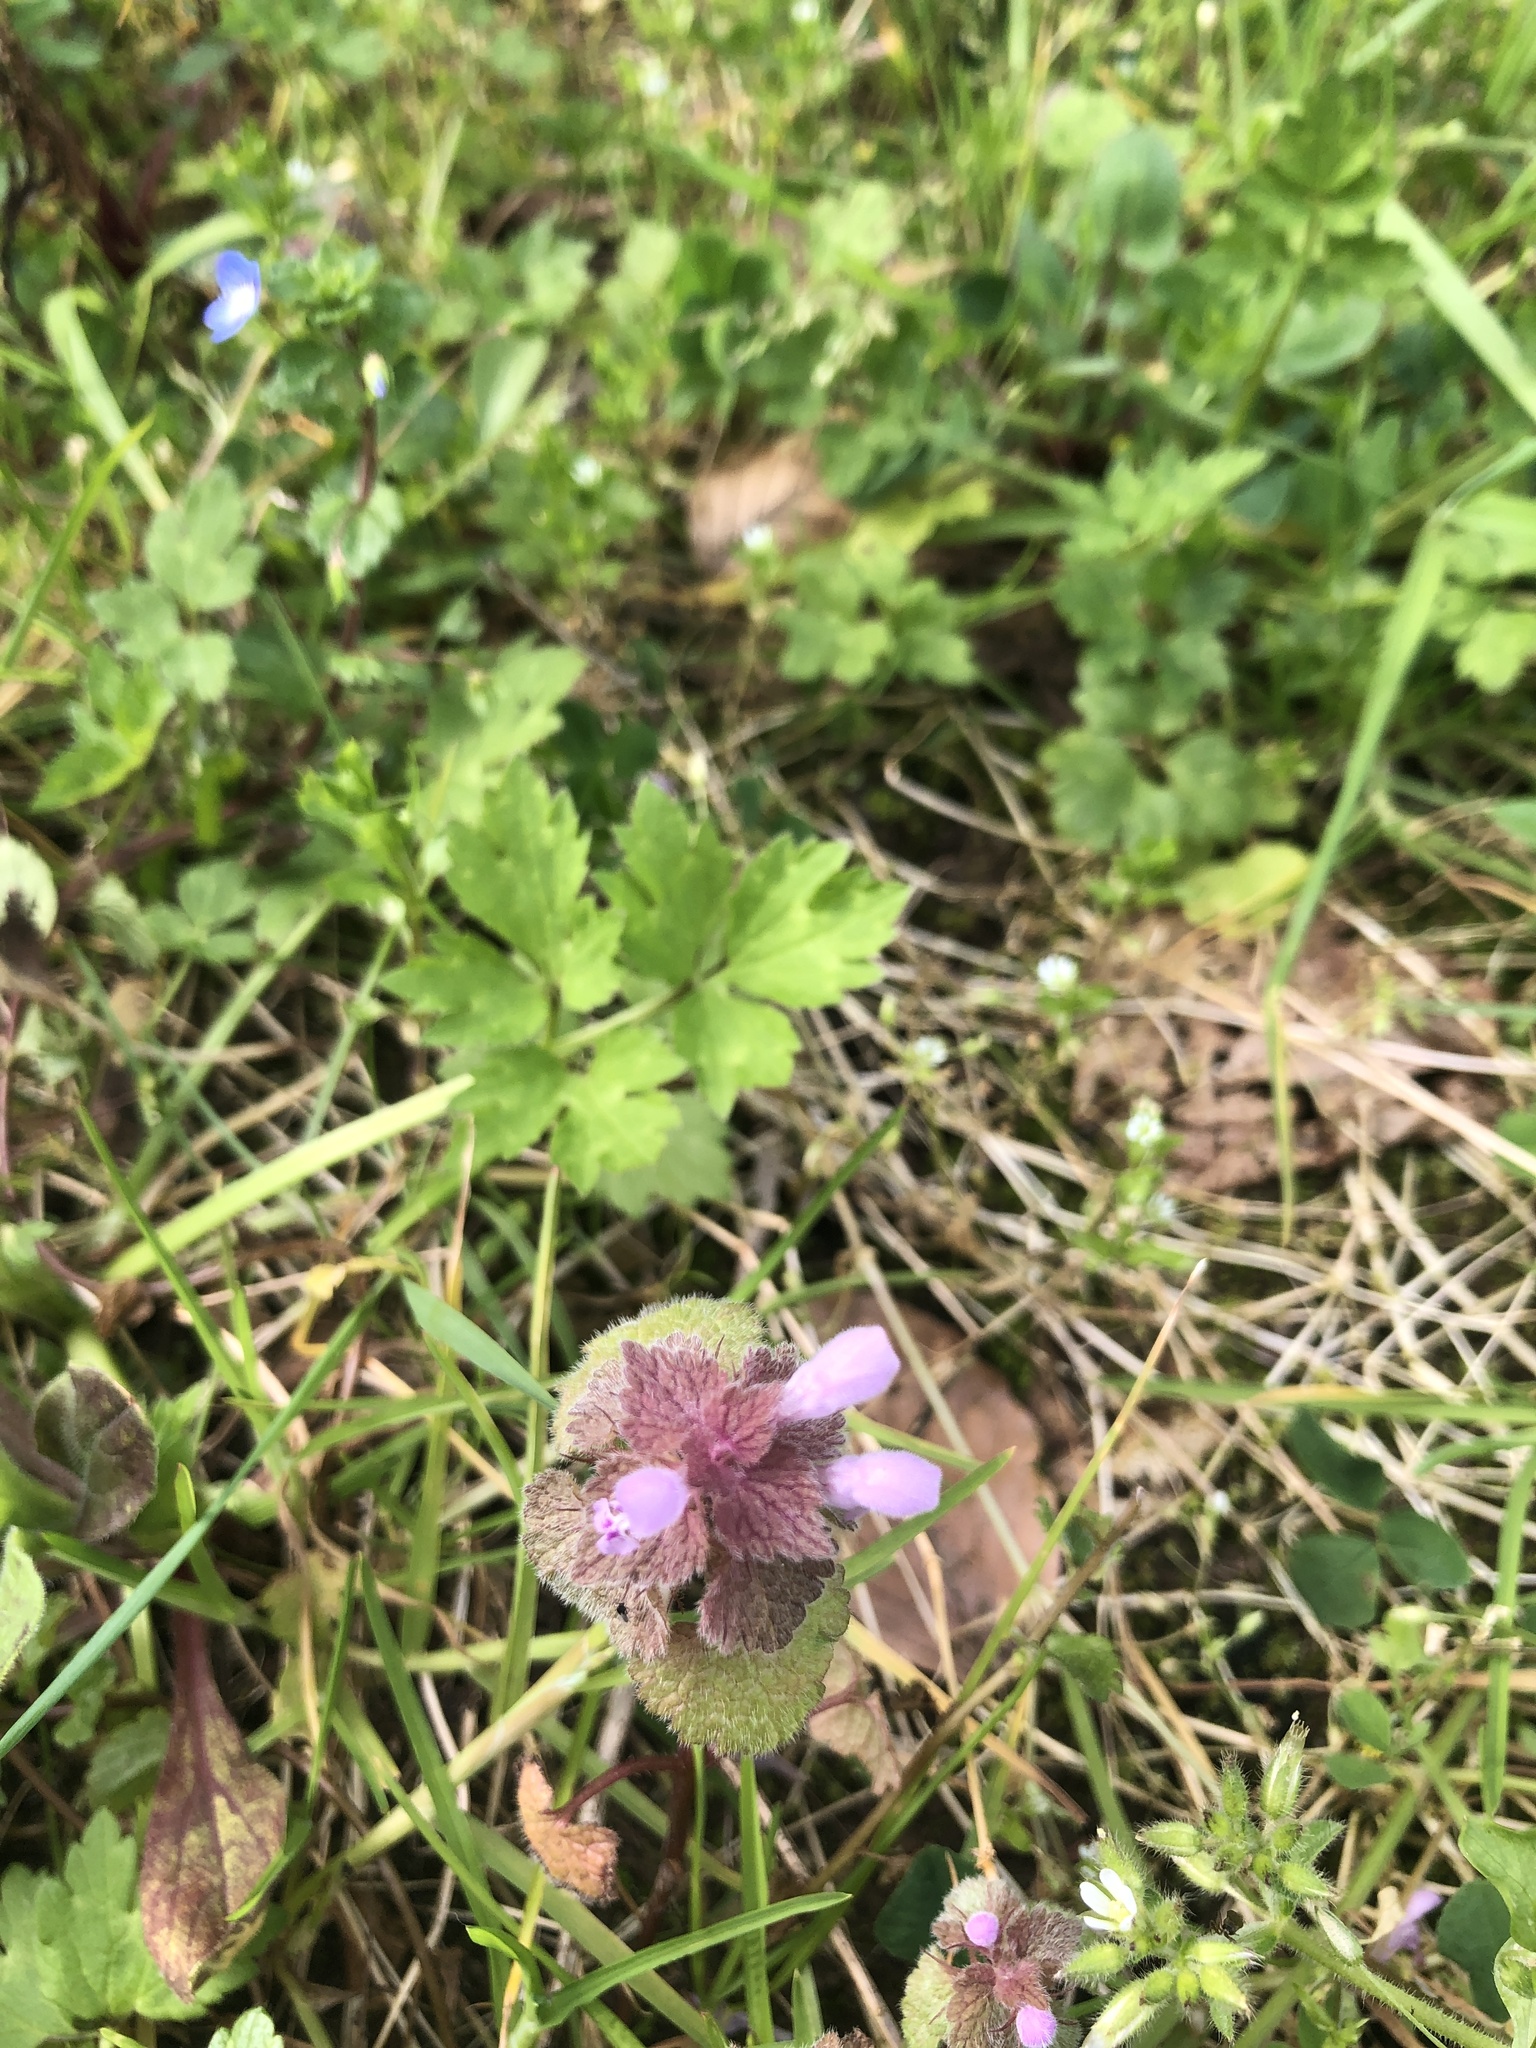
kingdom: Plantae
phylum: Tracheophyta
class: Magnoliopsida
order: Lamiales
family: Lamiaceae
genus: Lamium
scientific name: Lamium purpureum
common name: Red dead-nettle
